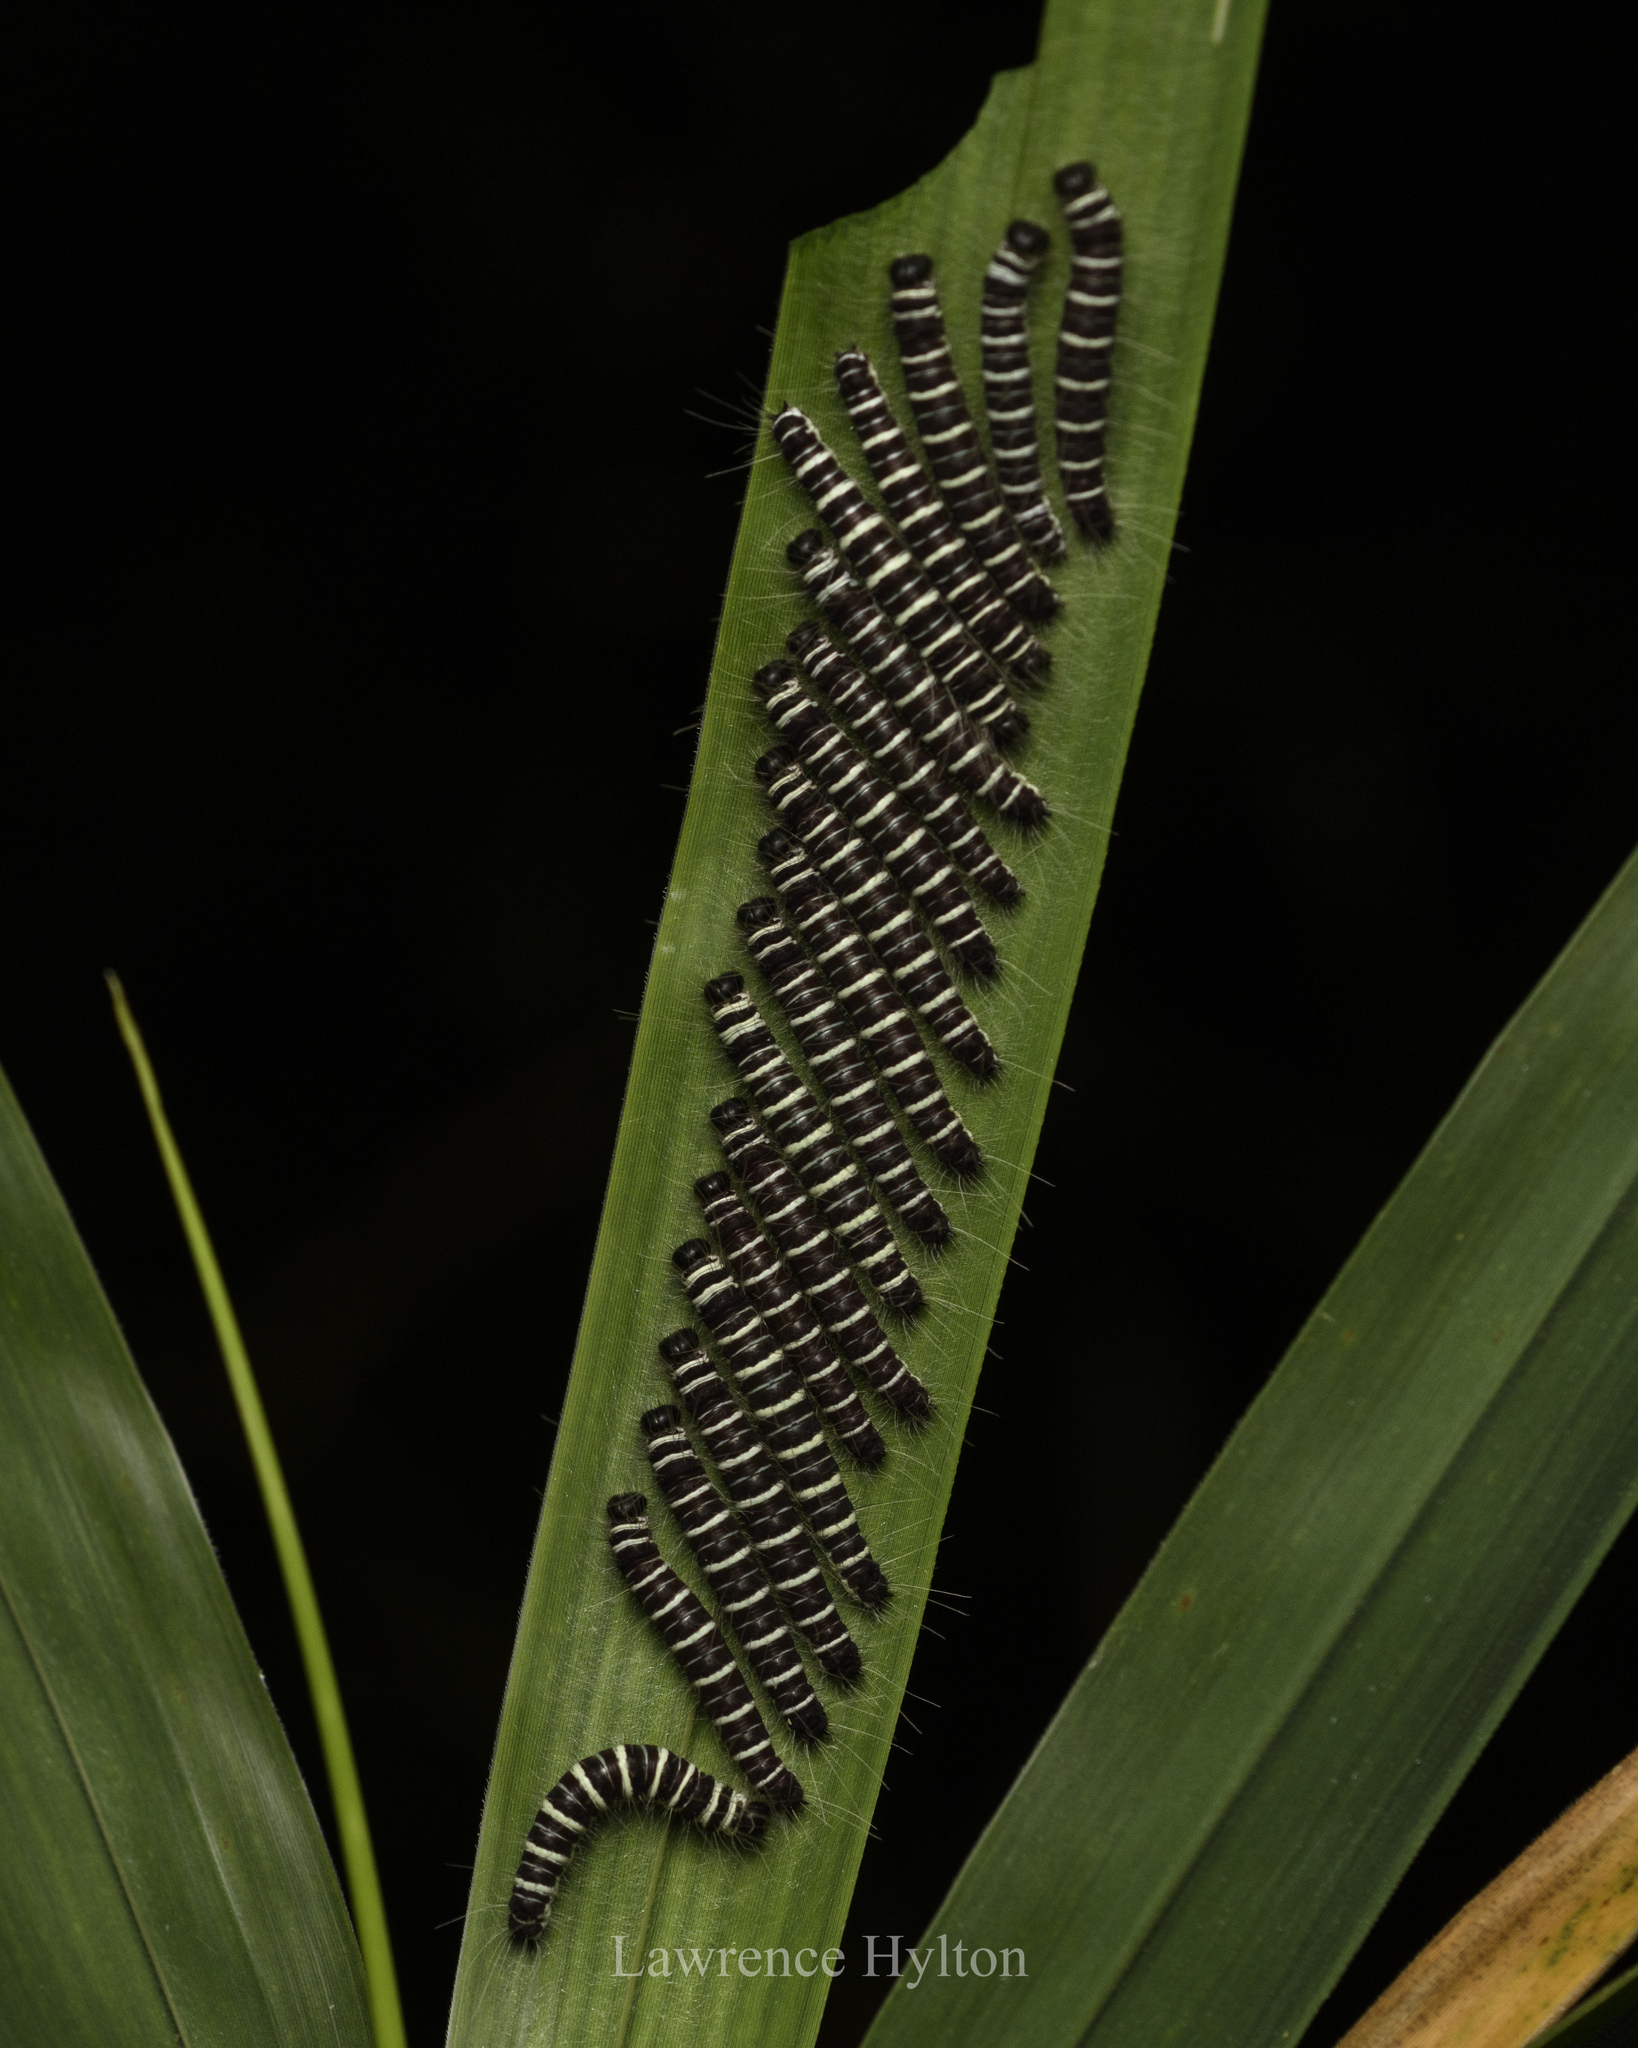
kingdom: Animalia
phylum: Arthropoda
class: Insecta
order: Lepidoptera
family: Nymphalidae
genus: Discophora
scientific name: Discophora sondaica
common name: Common duffer
